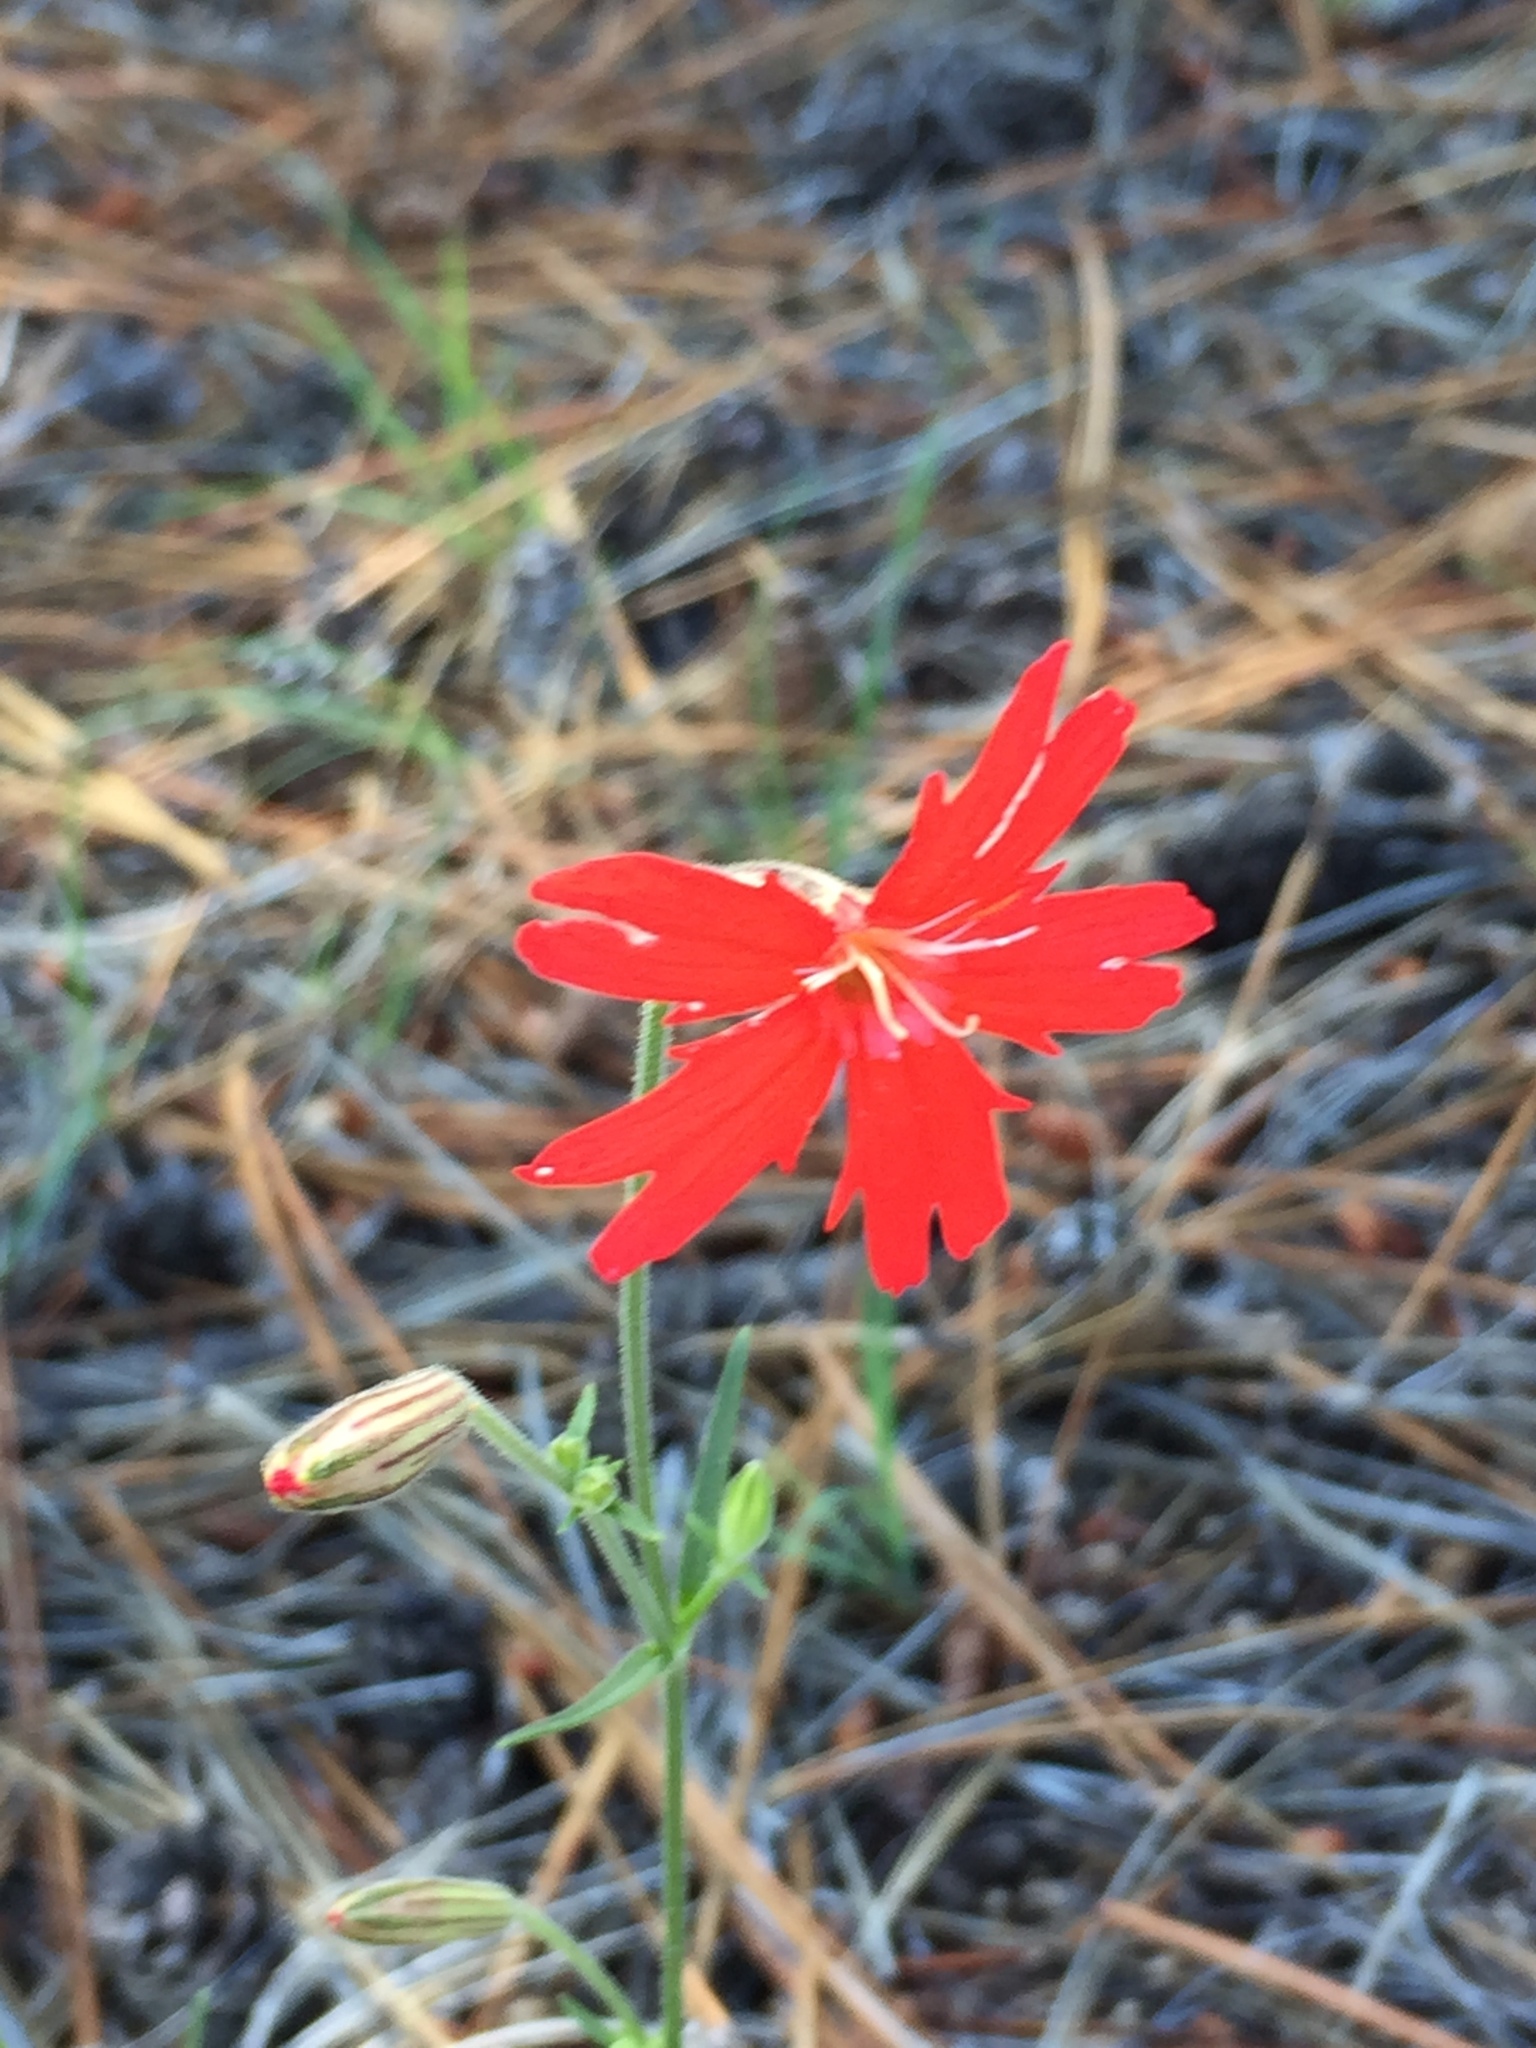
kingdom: Plantae
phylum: Tracheophyta
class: Magnoliopsida
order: Caryophyllales
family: Caryophyllaceae
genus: Silene
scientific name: Silene laciniata
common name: Indian-pink
